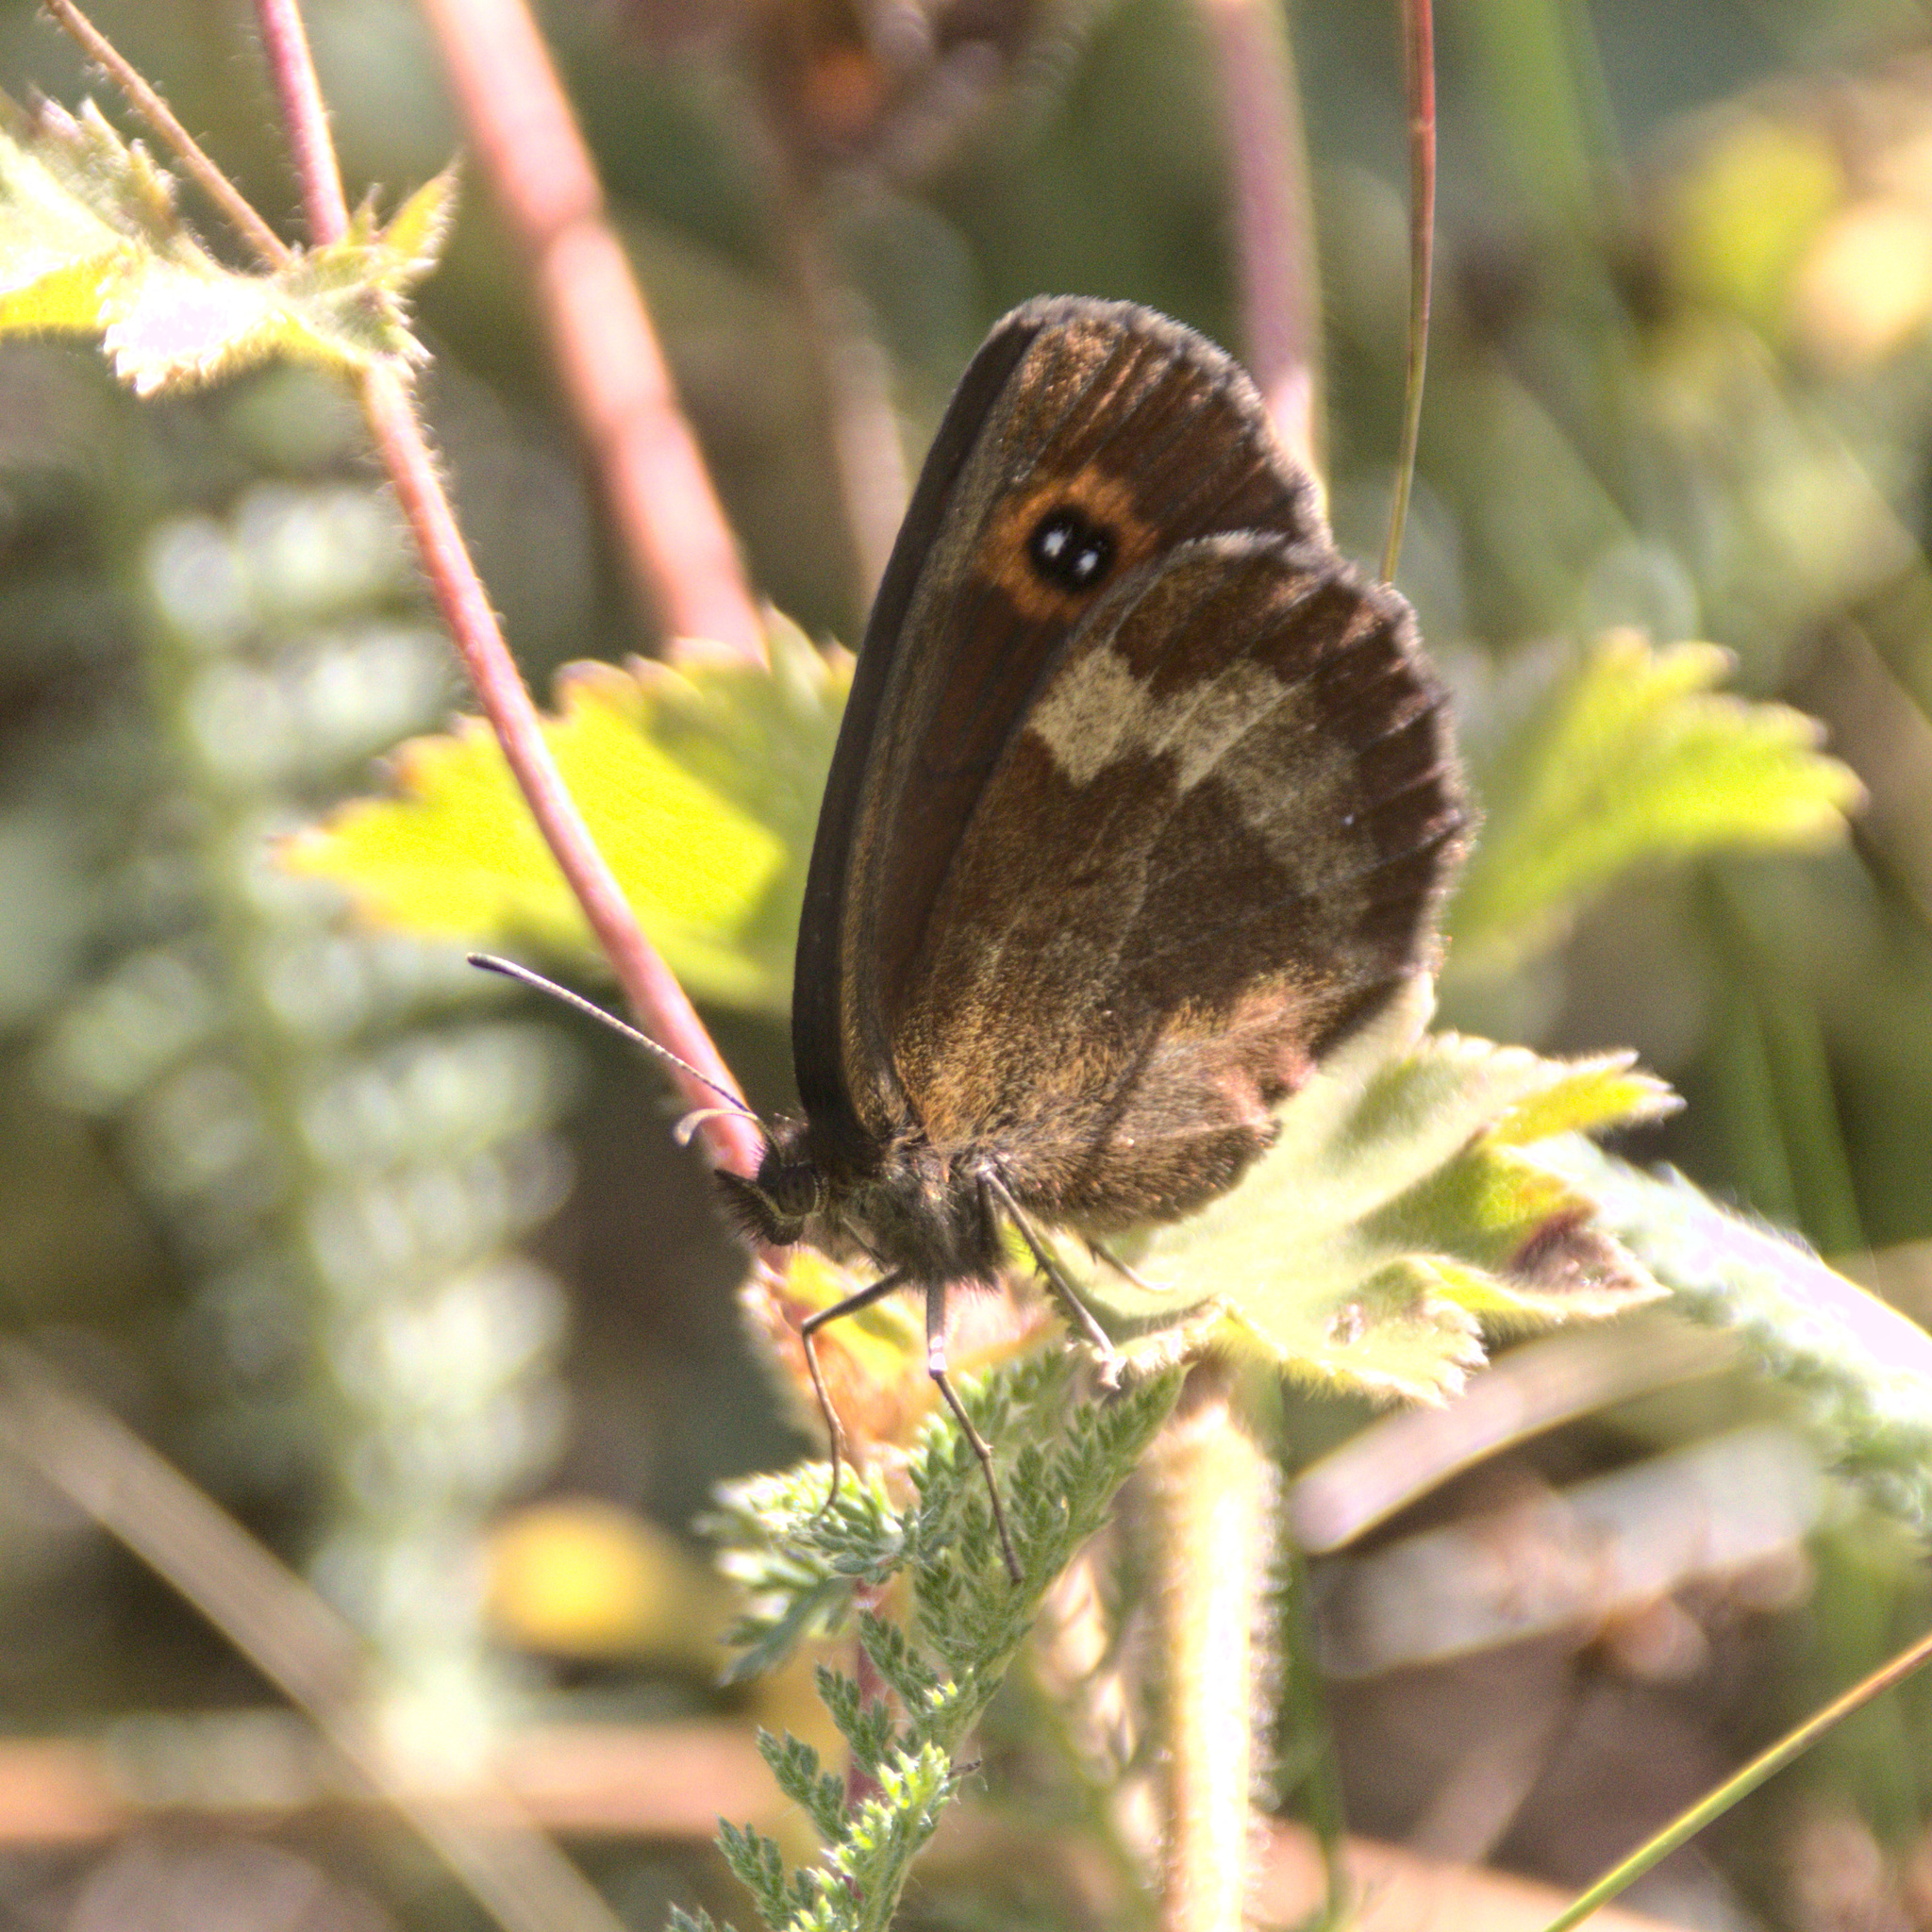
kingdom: Animalia
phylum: Arthropoda
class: Insecta
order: Lepidoptera
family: Nymphalidae
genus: Erebia
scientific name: Erebia aethiops
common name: Scotch argus
